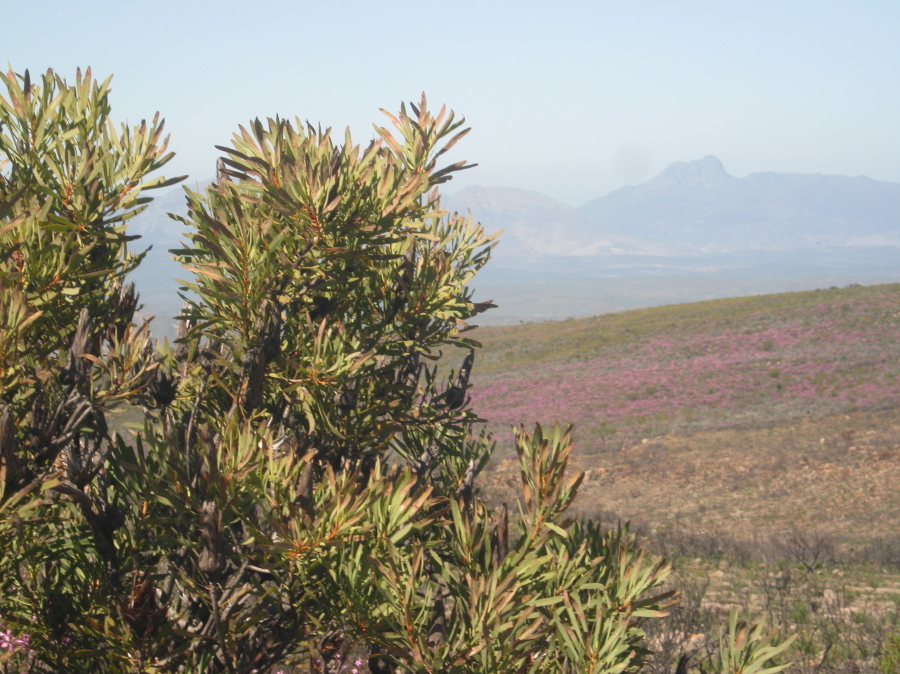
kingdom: Plantae
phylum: Tracheophyta
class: Magnoliopsida
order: Proteales
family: Proteaceae
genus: Protea
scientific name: Protea repens
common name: Sugarbush
